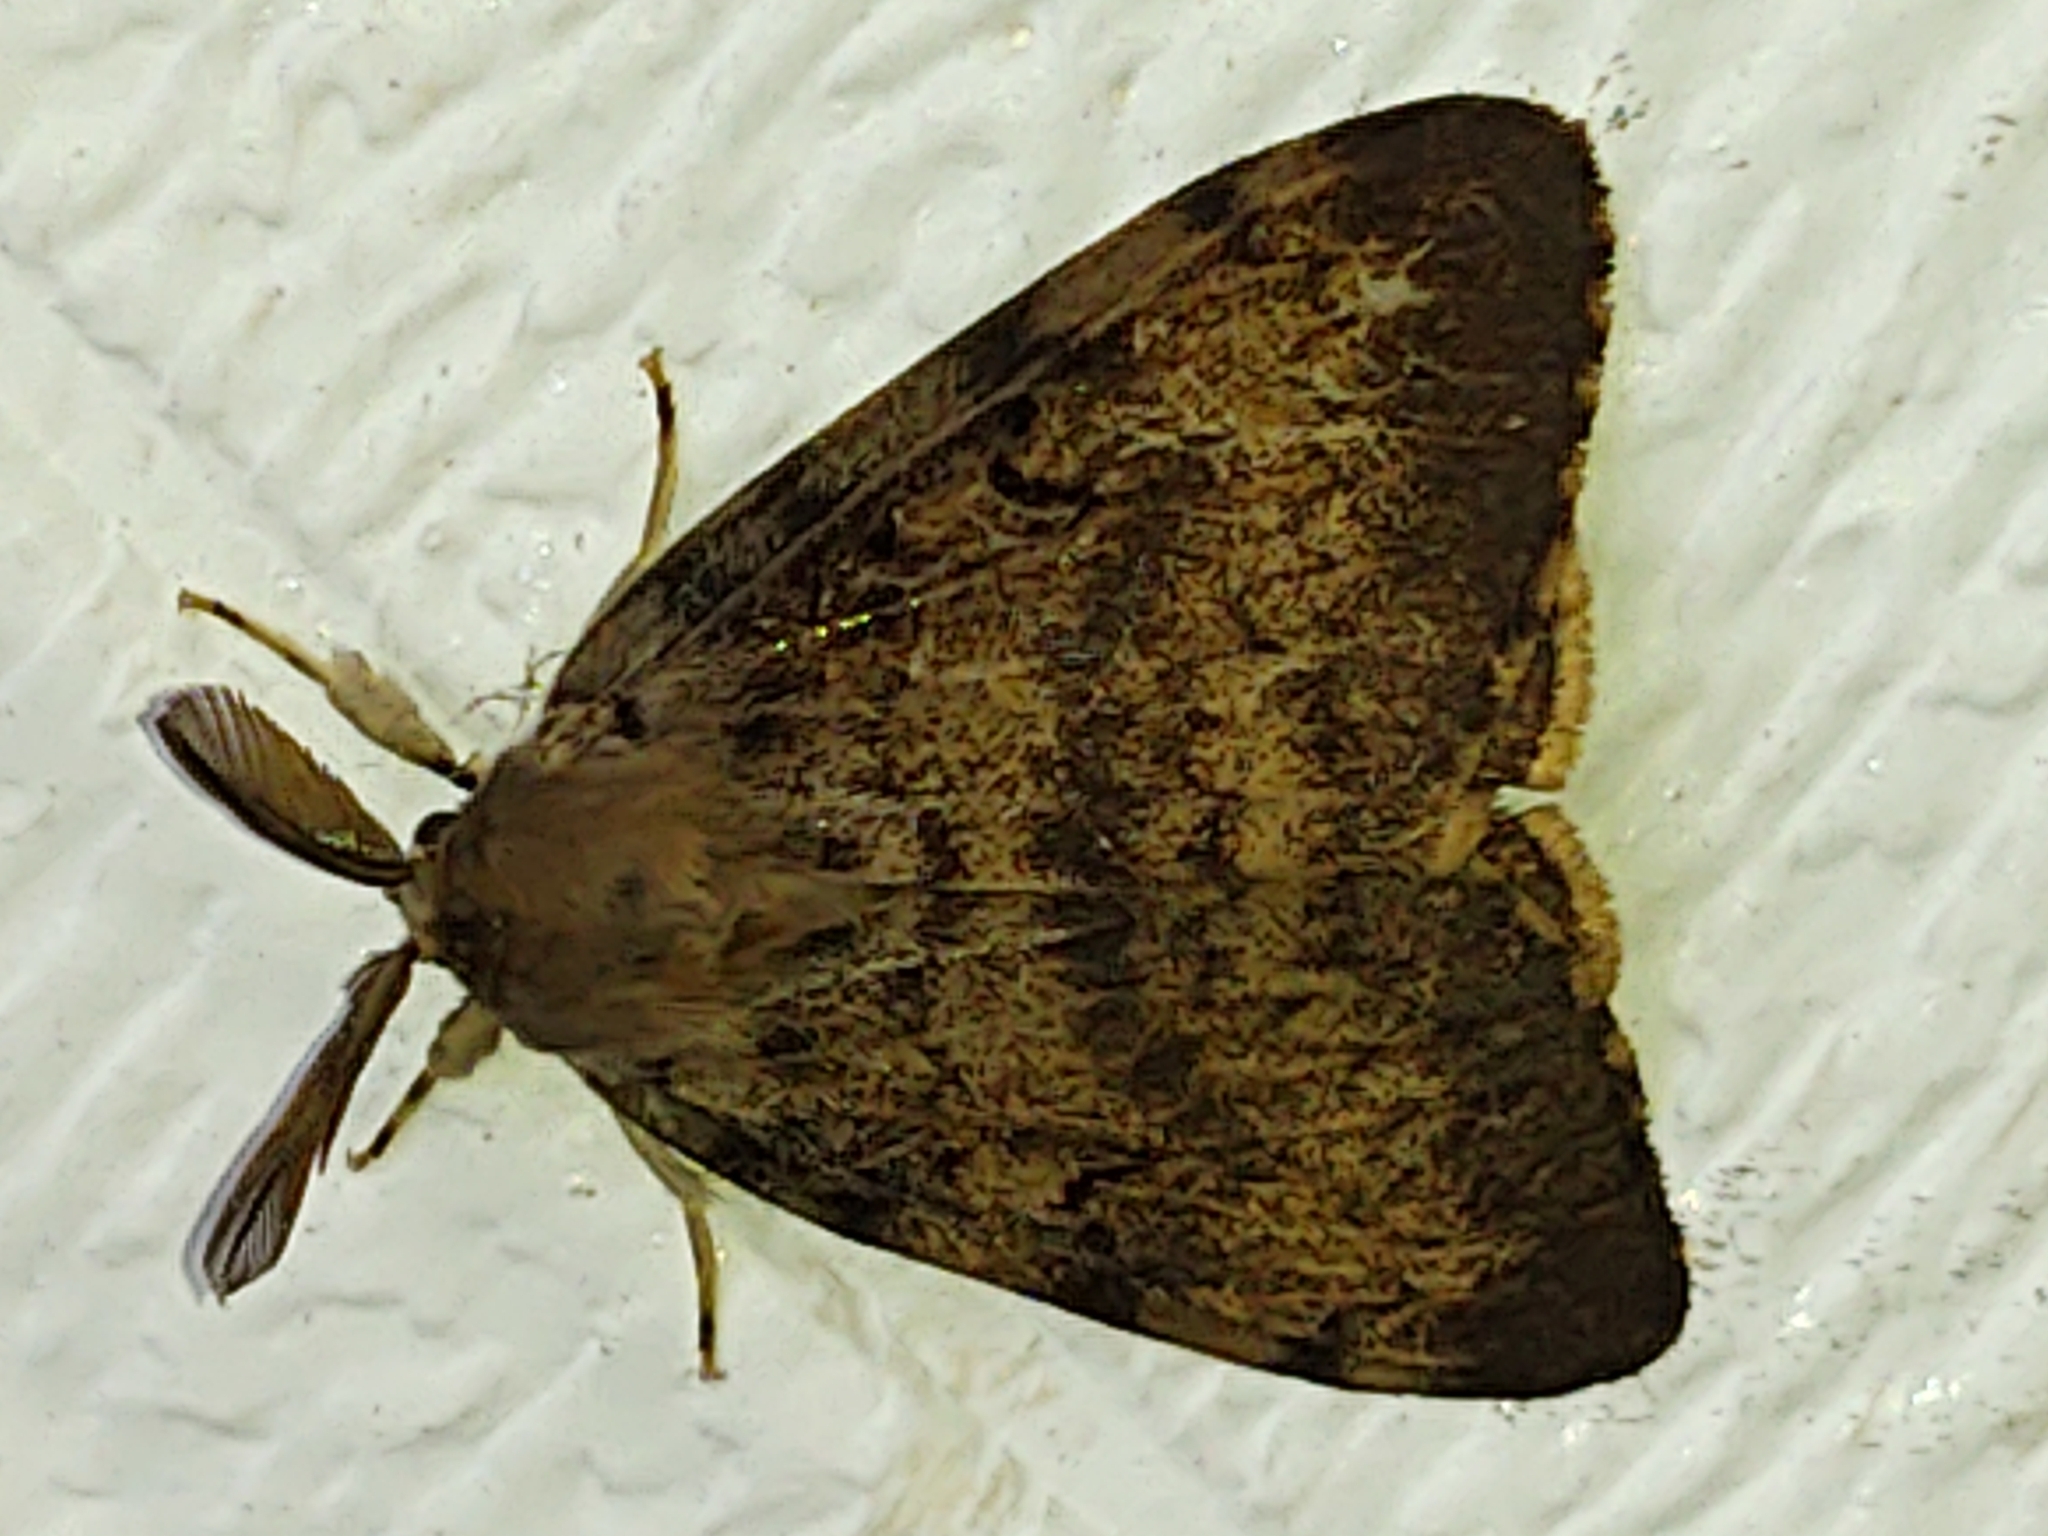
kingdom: Animalia
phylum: Arthropoda
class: Insecta
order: Lepidoptera
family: Erebidae
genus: Lymantria
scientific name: Lymantria dispar
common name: Gypsy moth
